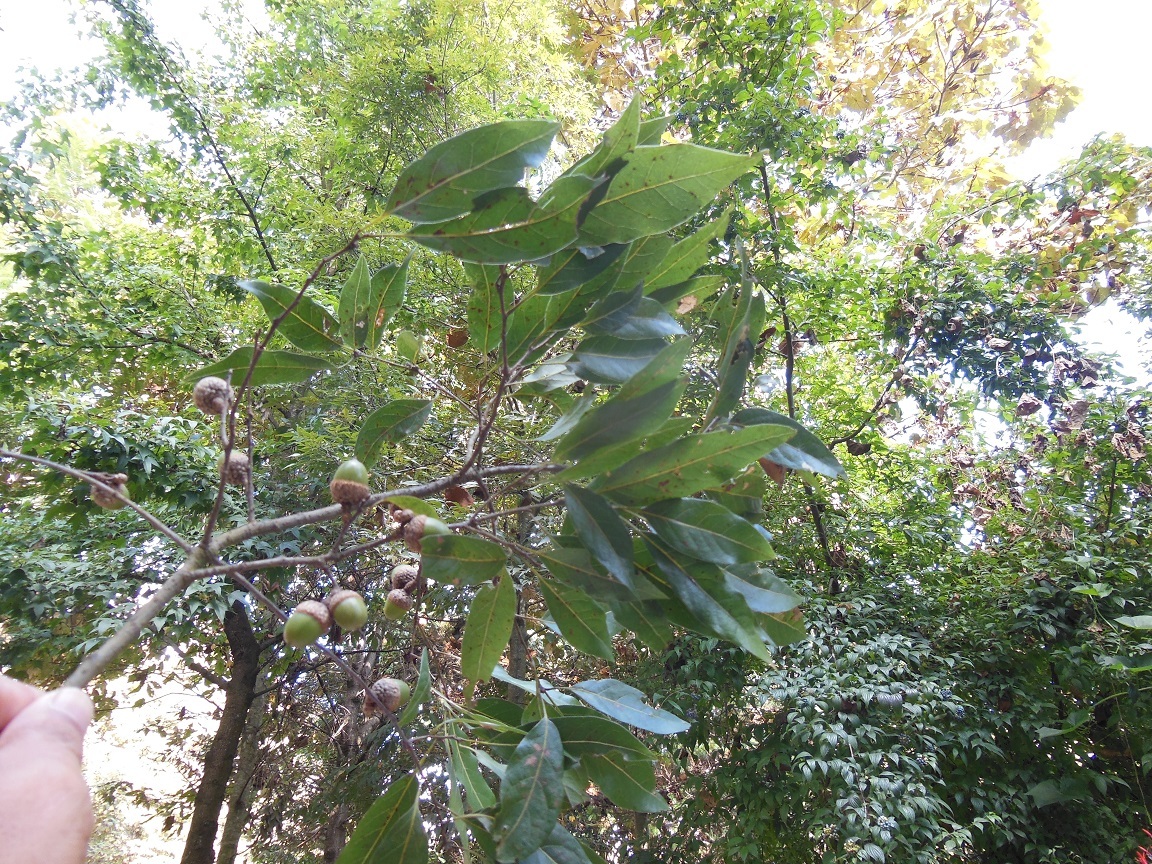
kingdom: Plantae
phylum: Tracheophyta
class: Magnoliopsida
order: Fagales
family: Fagaceae
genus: Quercus
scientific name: Quercus laurina
